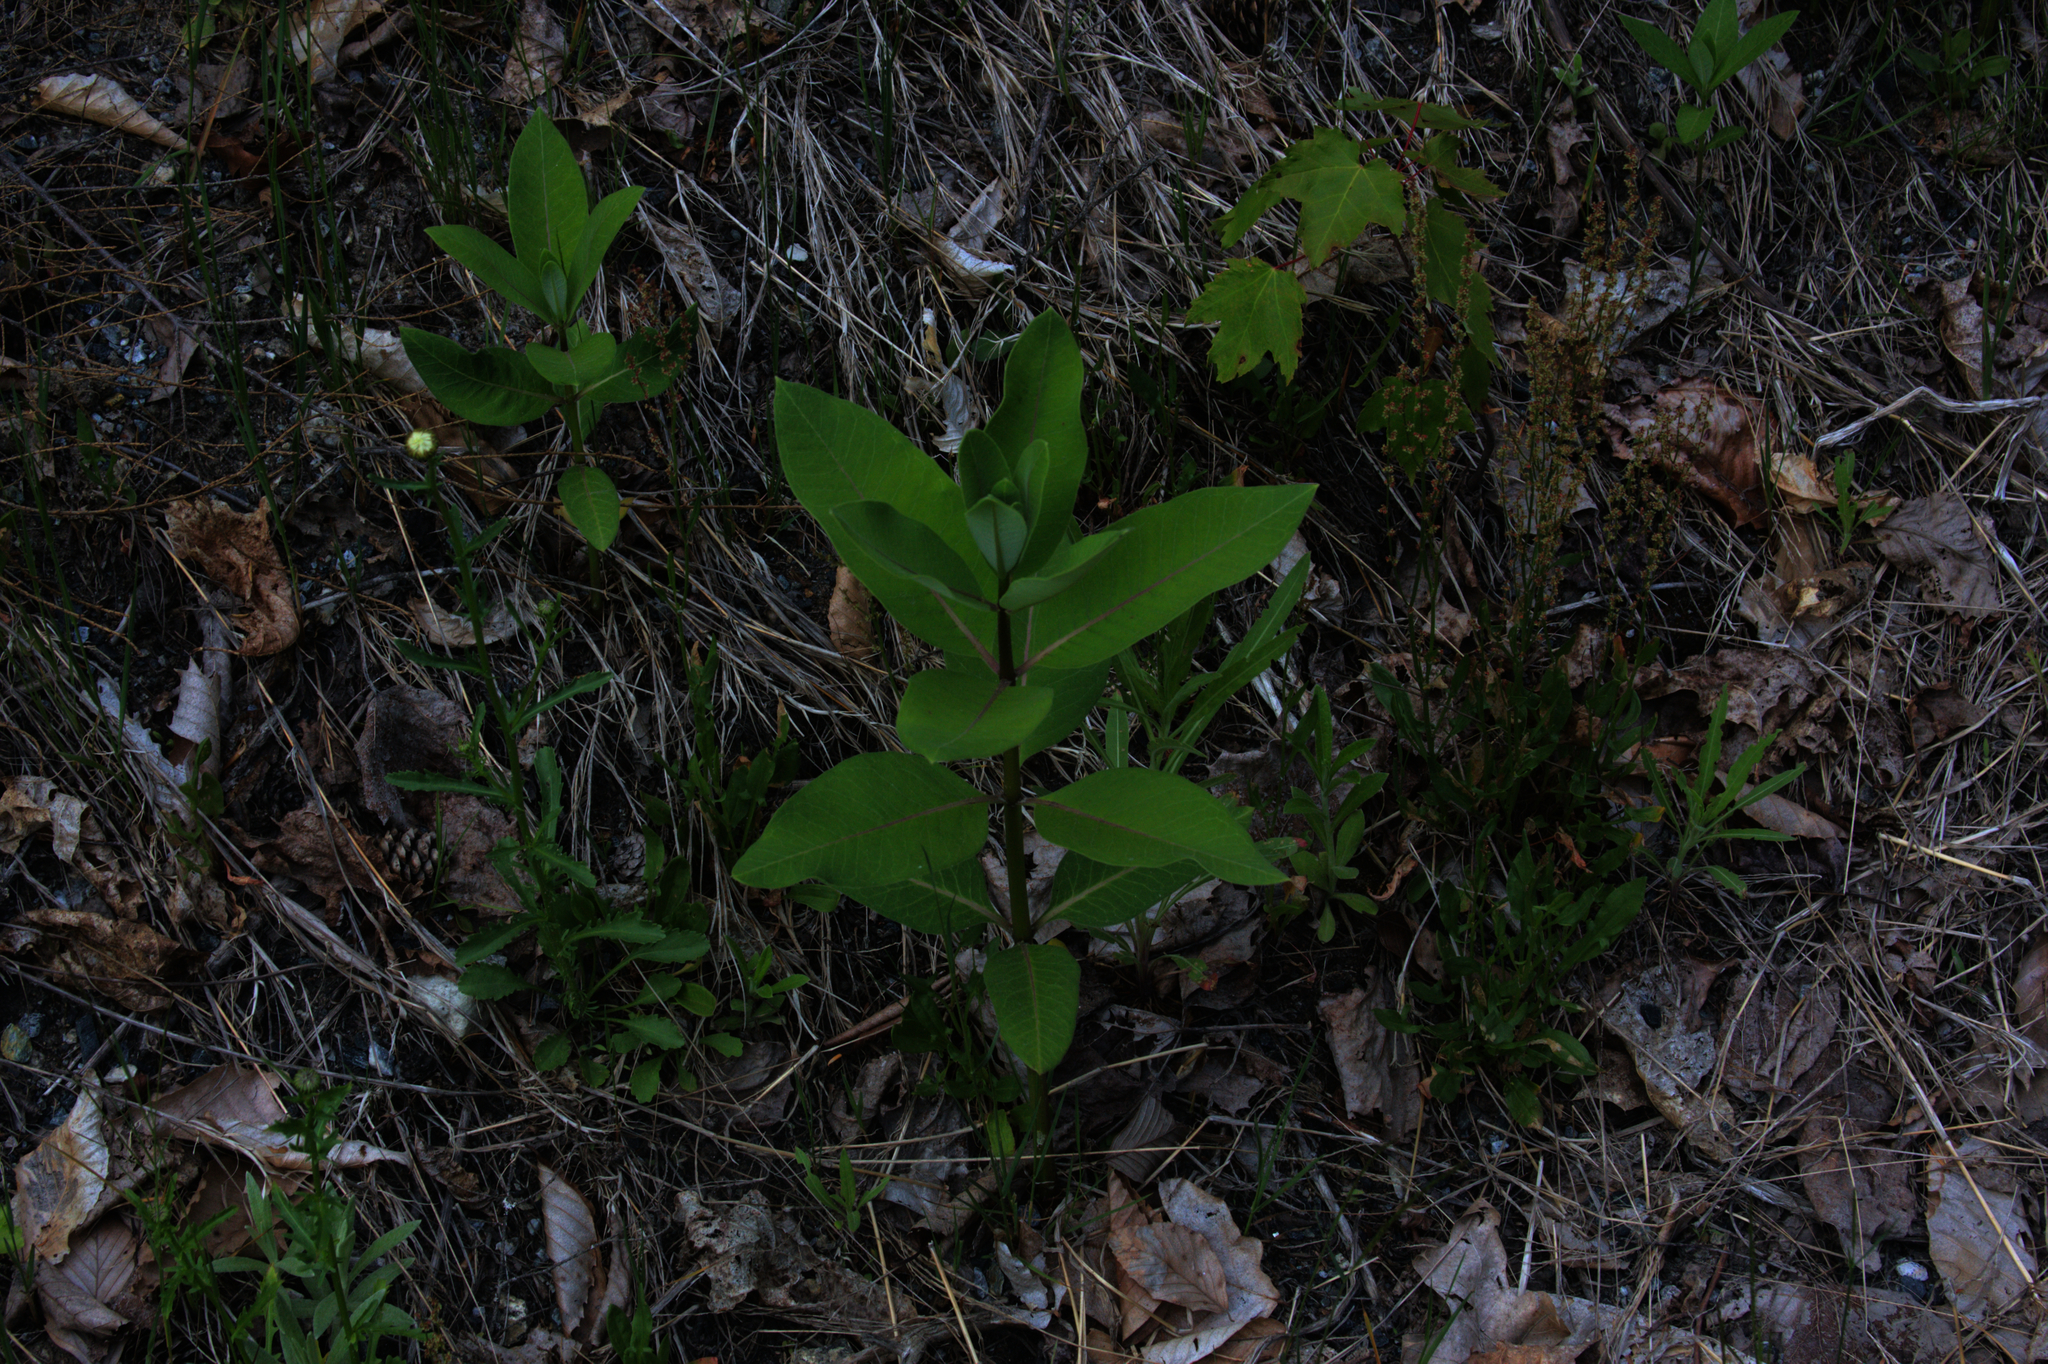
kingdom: Plantae
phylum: Tracheophyta
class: Magnoliopsida
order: Asterales
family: Asteraceae
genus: Leucanthemum
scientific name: Leucanthemum vulgare
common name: Oxeye daisy
